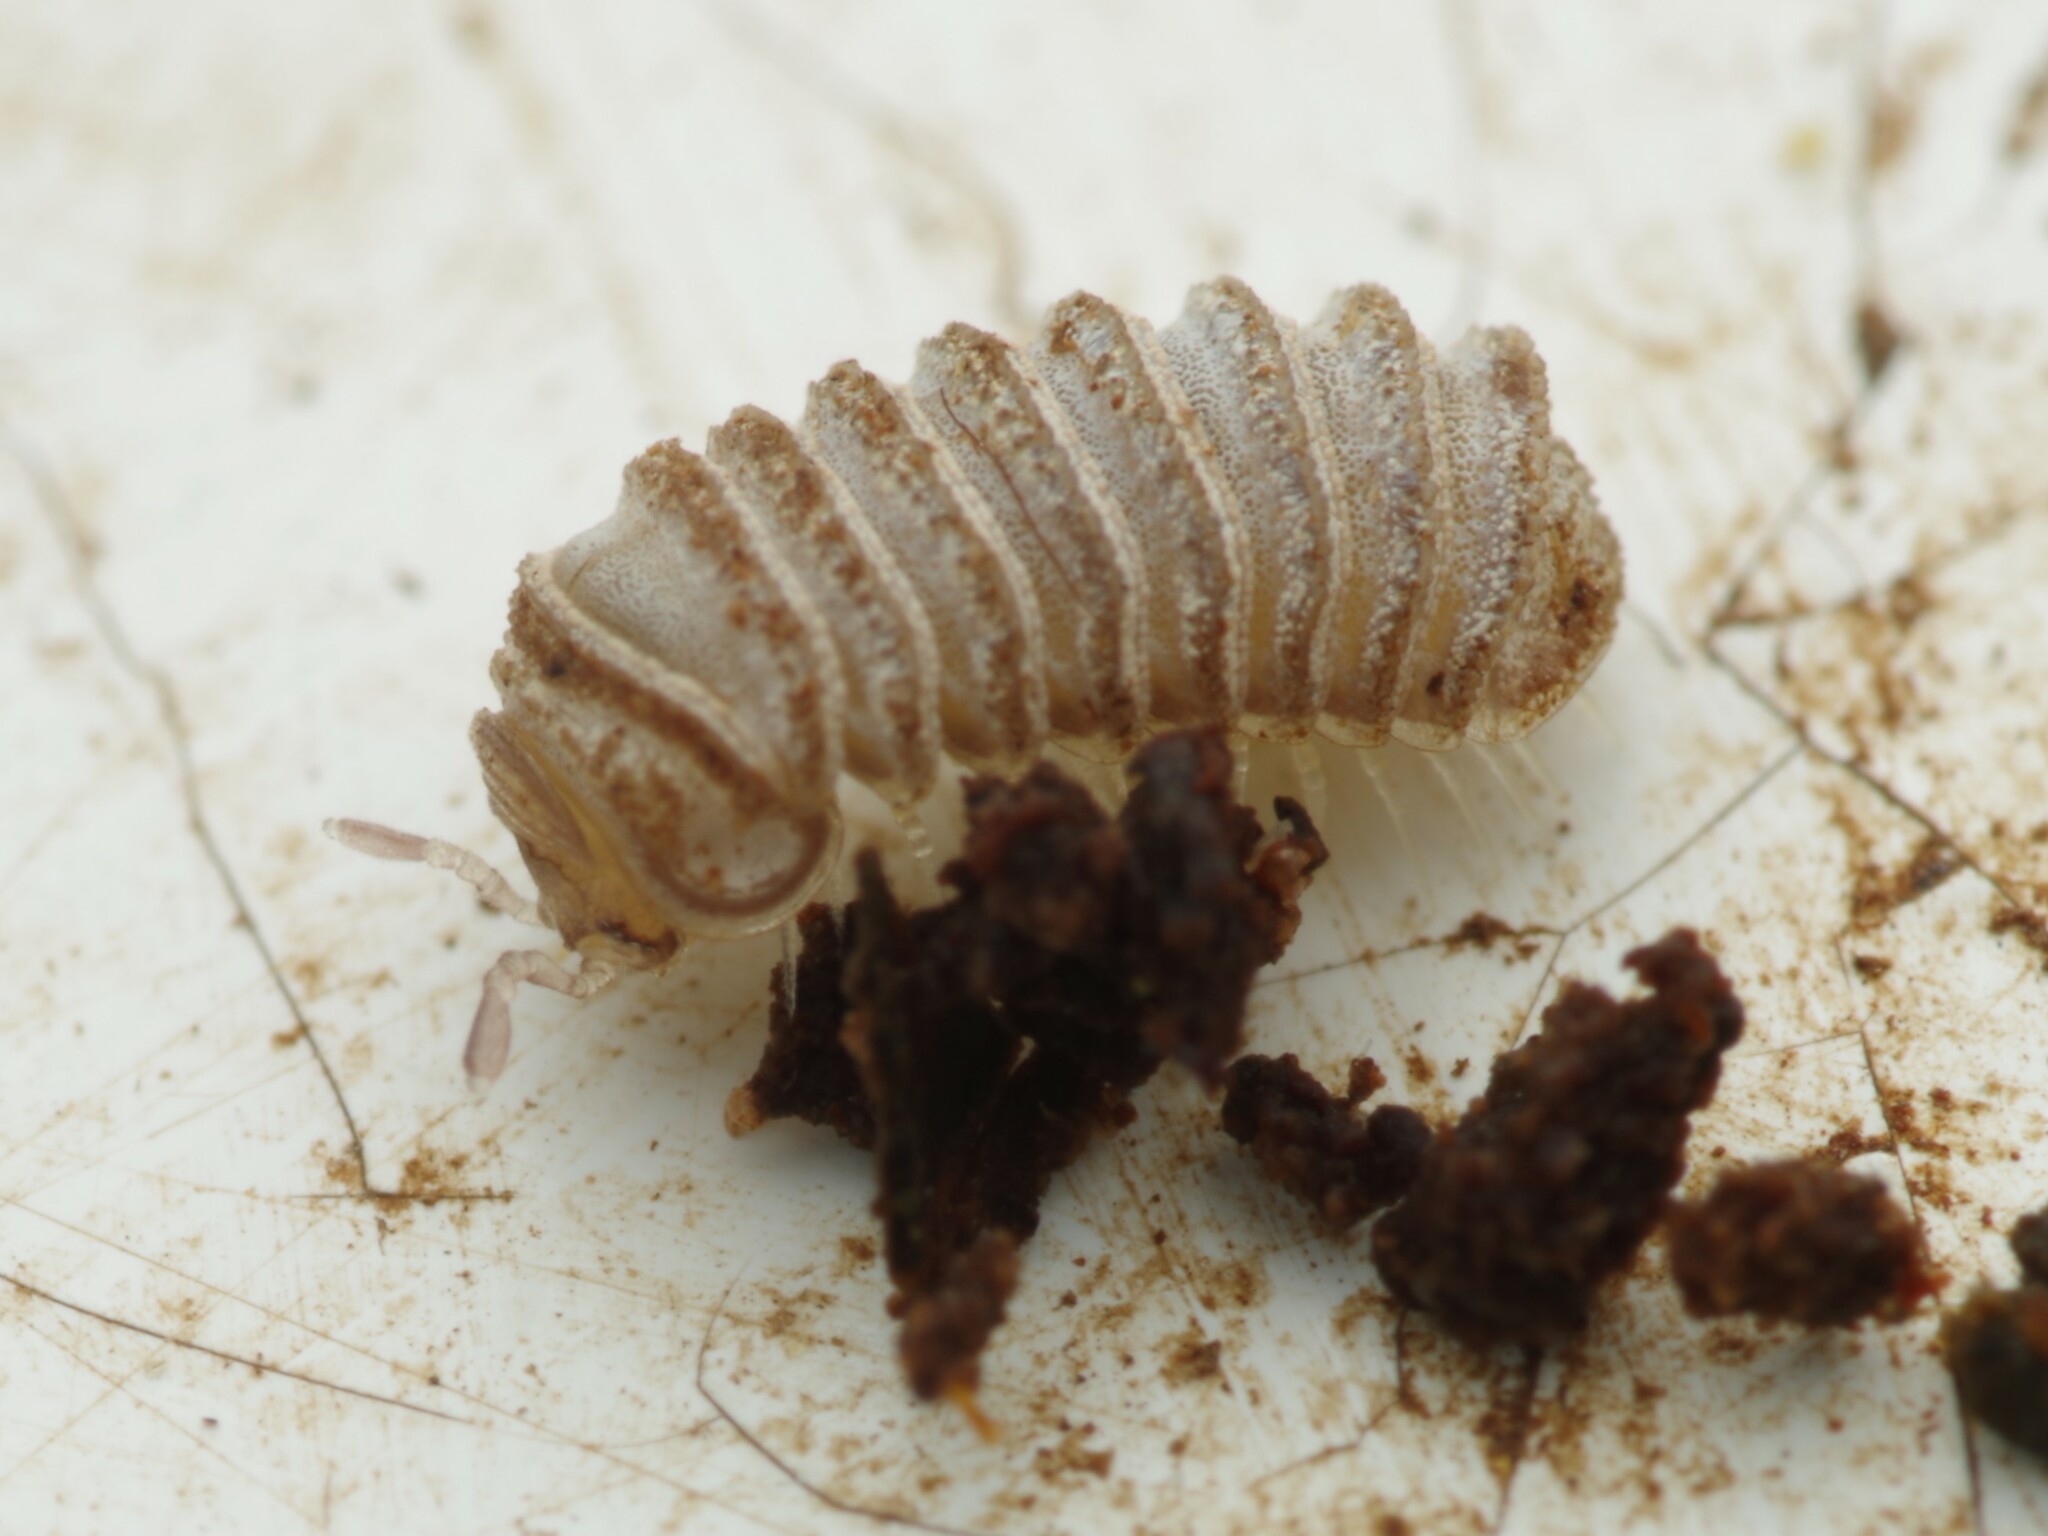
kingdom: Animalia
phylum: Arthropoda
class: Diplopoda
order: Glomerida
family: Glomeridae
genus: Trachysphaera
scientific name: Trachysphaera lobata
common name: Sand pill-millipede
